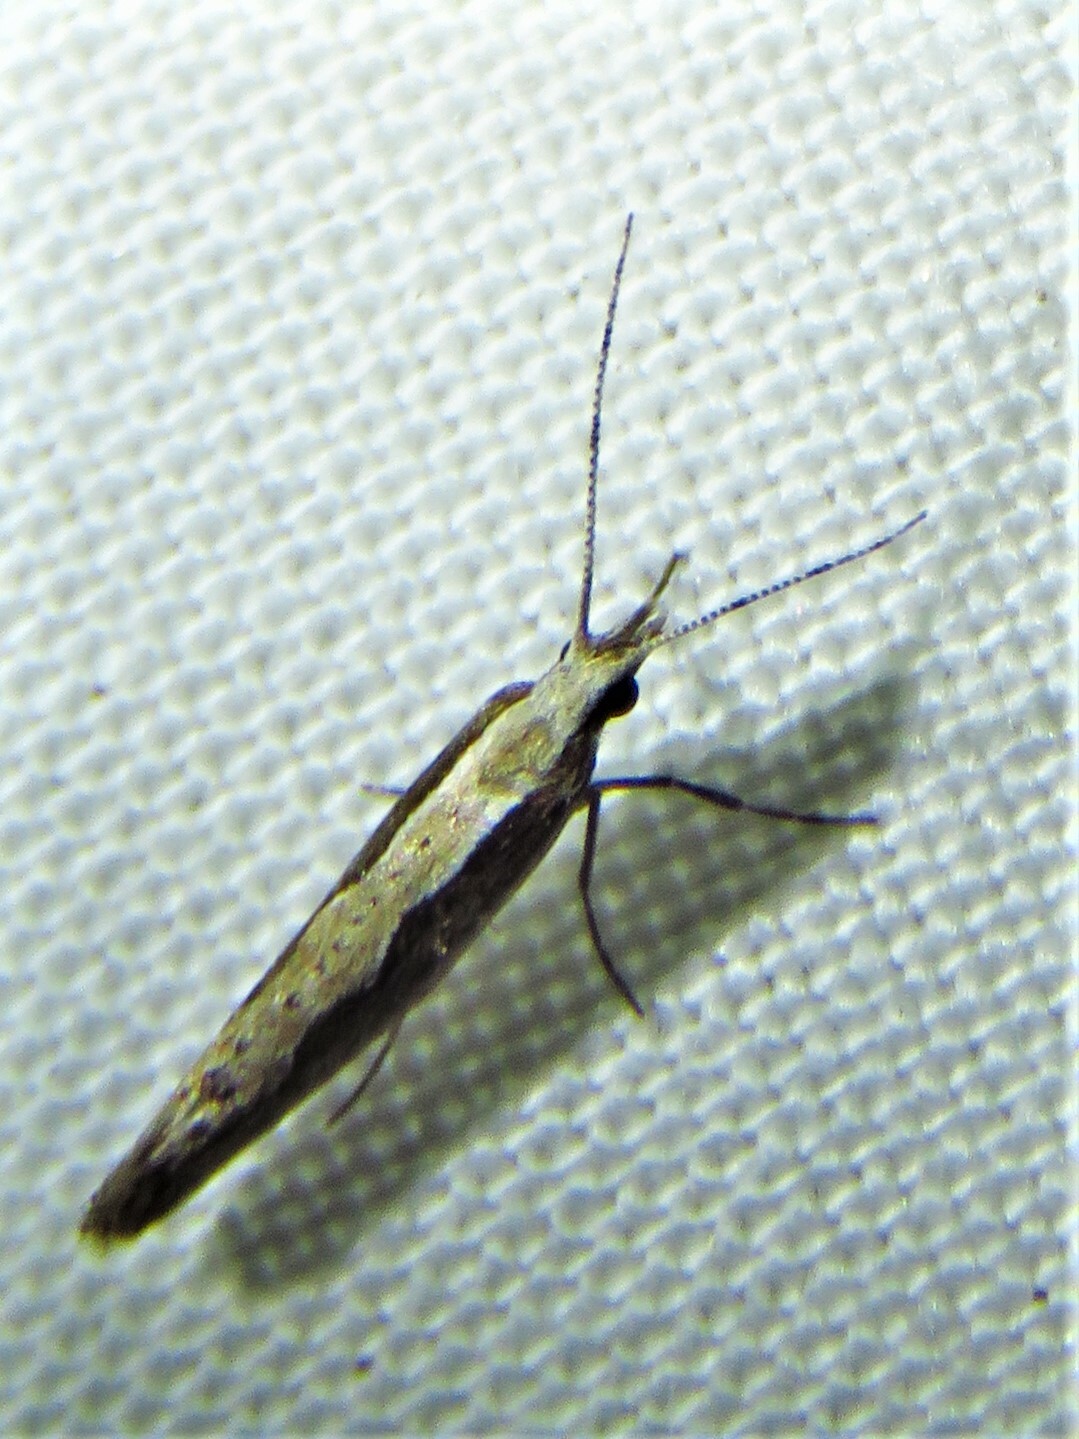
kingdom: Animalia
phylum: Arthropoda
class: Insecta
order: Lepidoptera
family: Plutellidae
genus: Plutella
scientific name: Plutella xylostella
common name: Diamond-back moth
